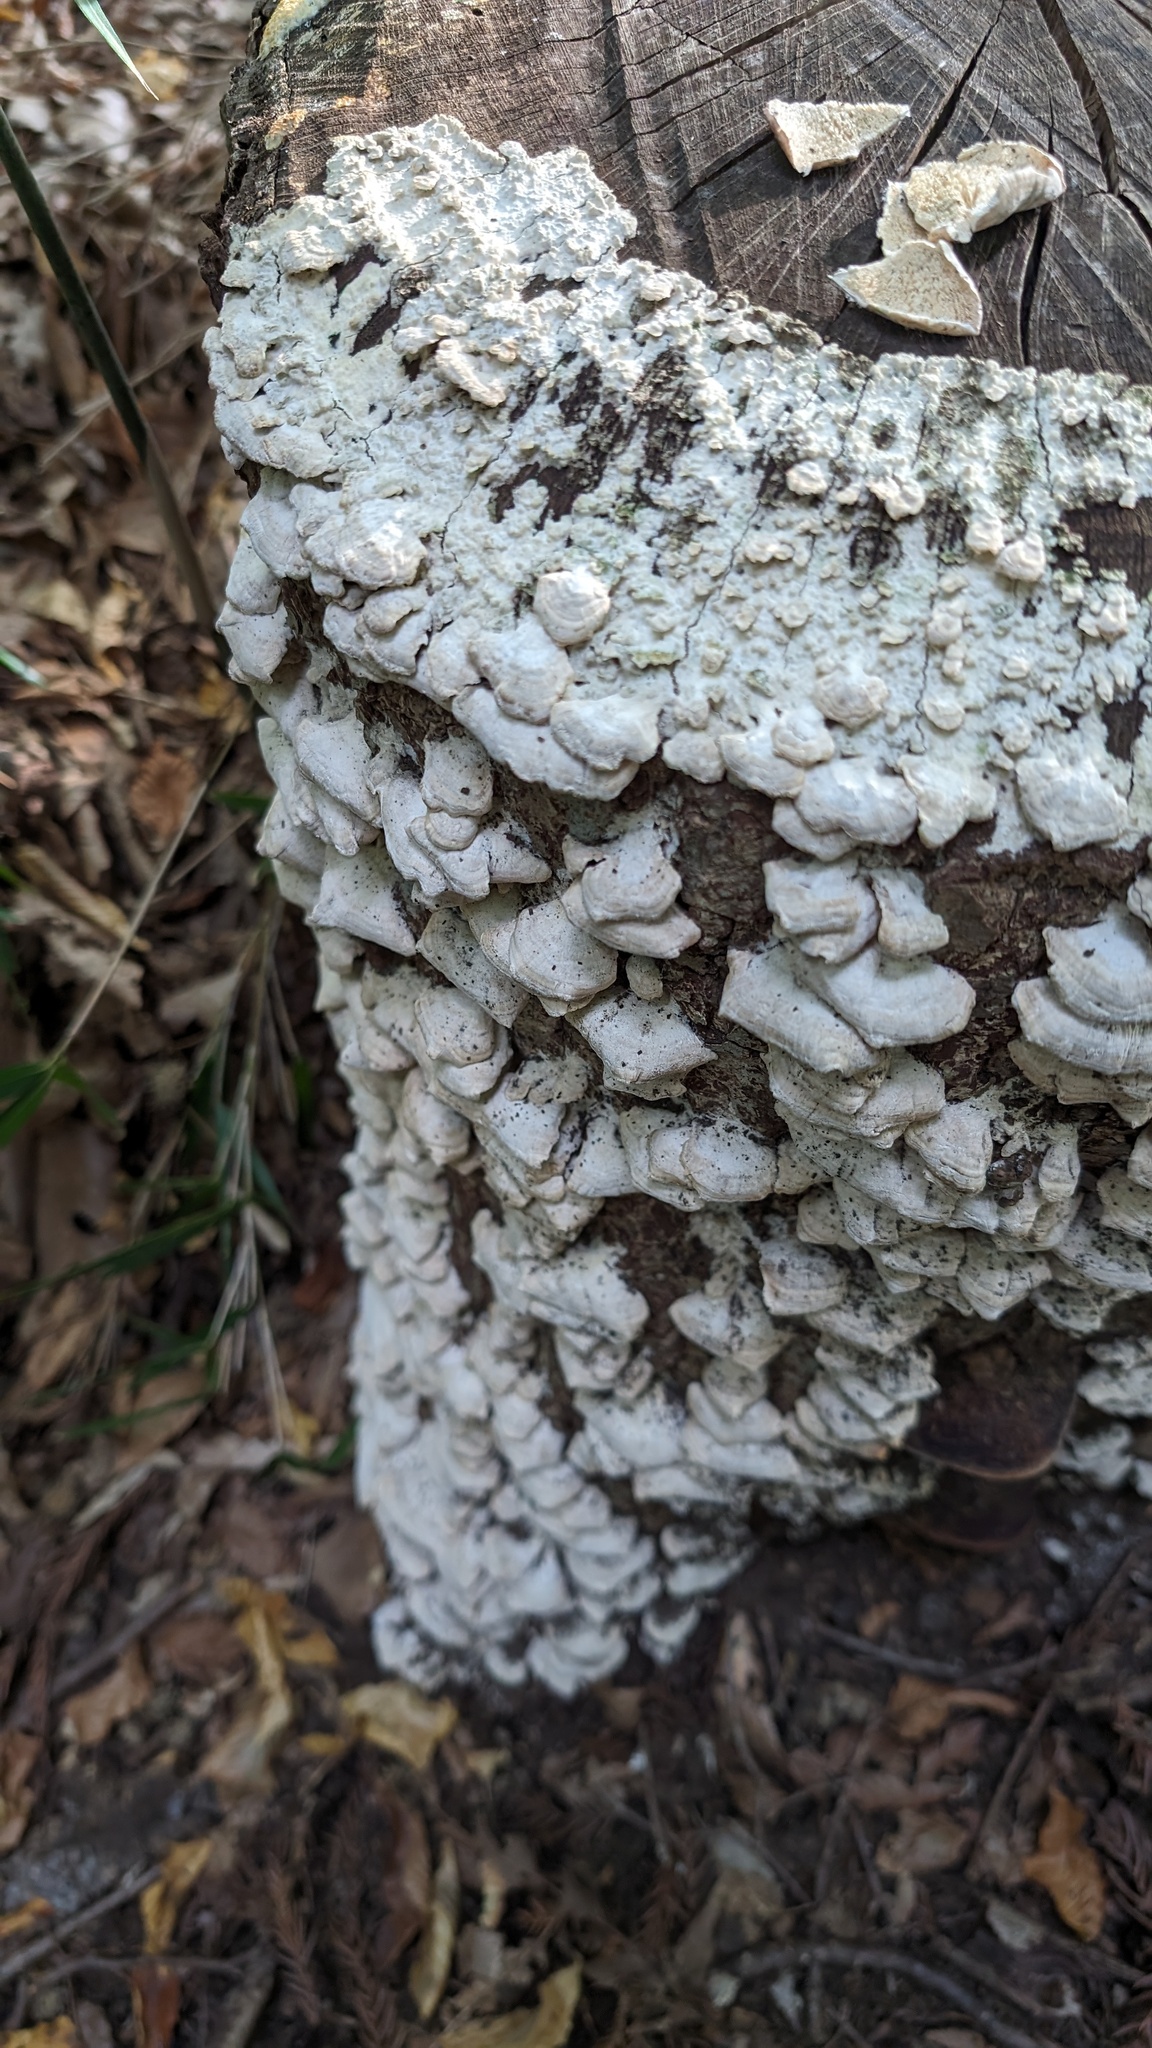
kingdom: Fungi
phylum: Basidiomycota
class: Agaricomycetes
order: Hymenochaetales
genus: Trichaptum
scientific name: Trichaptum biforme
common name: Violet-toothed polypore
